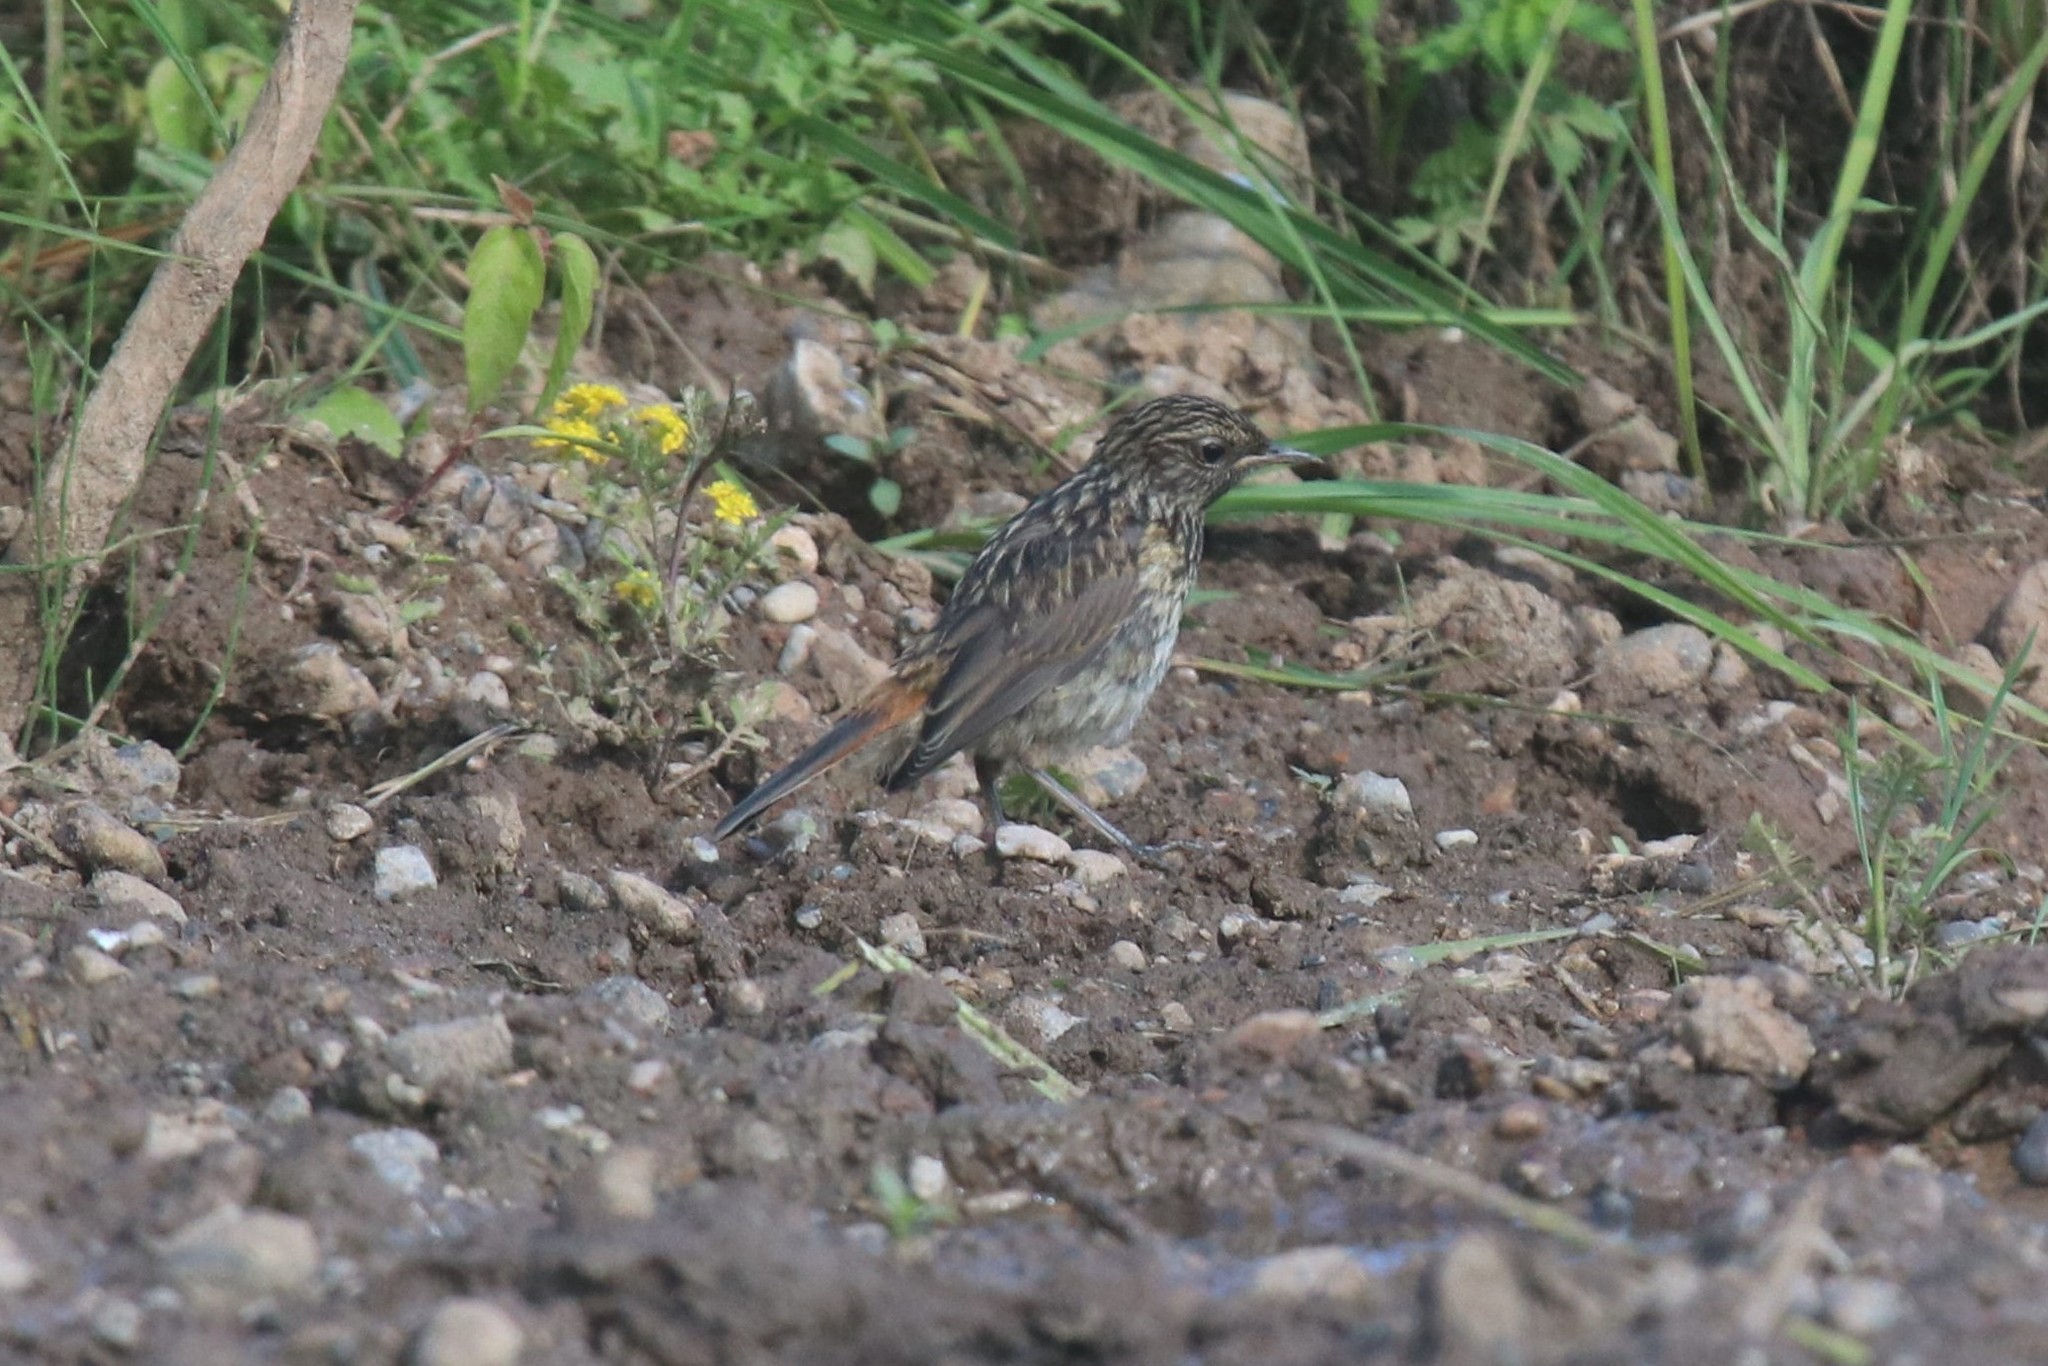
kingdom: Animalia
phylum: Chordata
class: Aves
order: Passeriformes
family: Muscicapidae
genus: Luscinia
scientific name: Luscinia svecica
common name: Bluethroat
